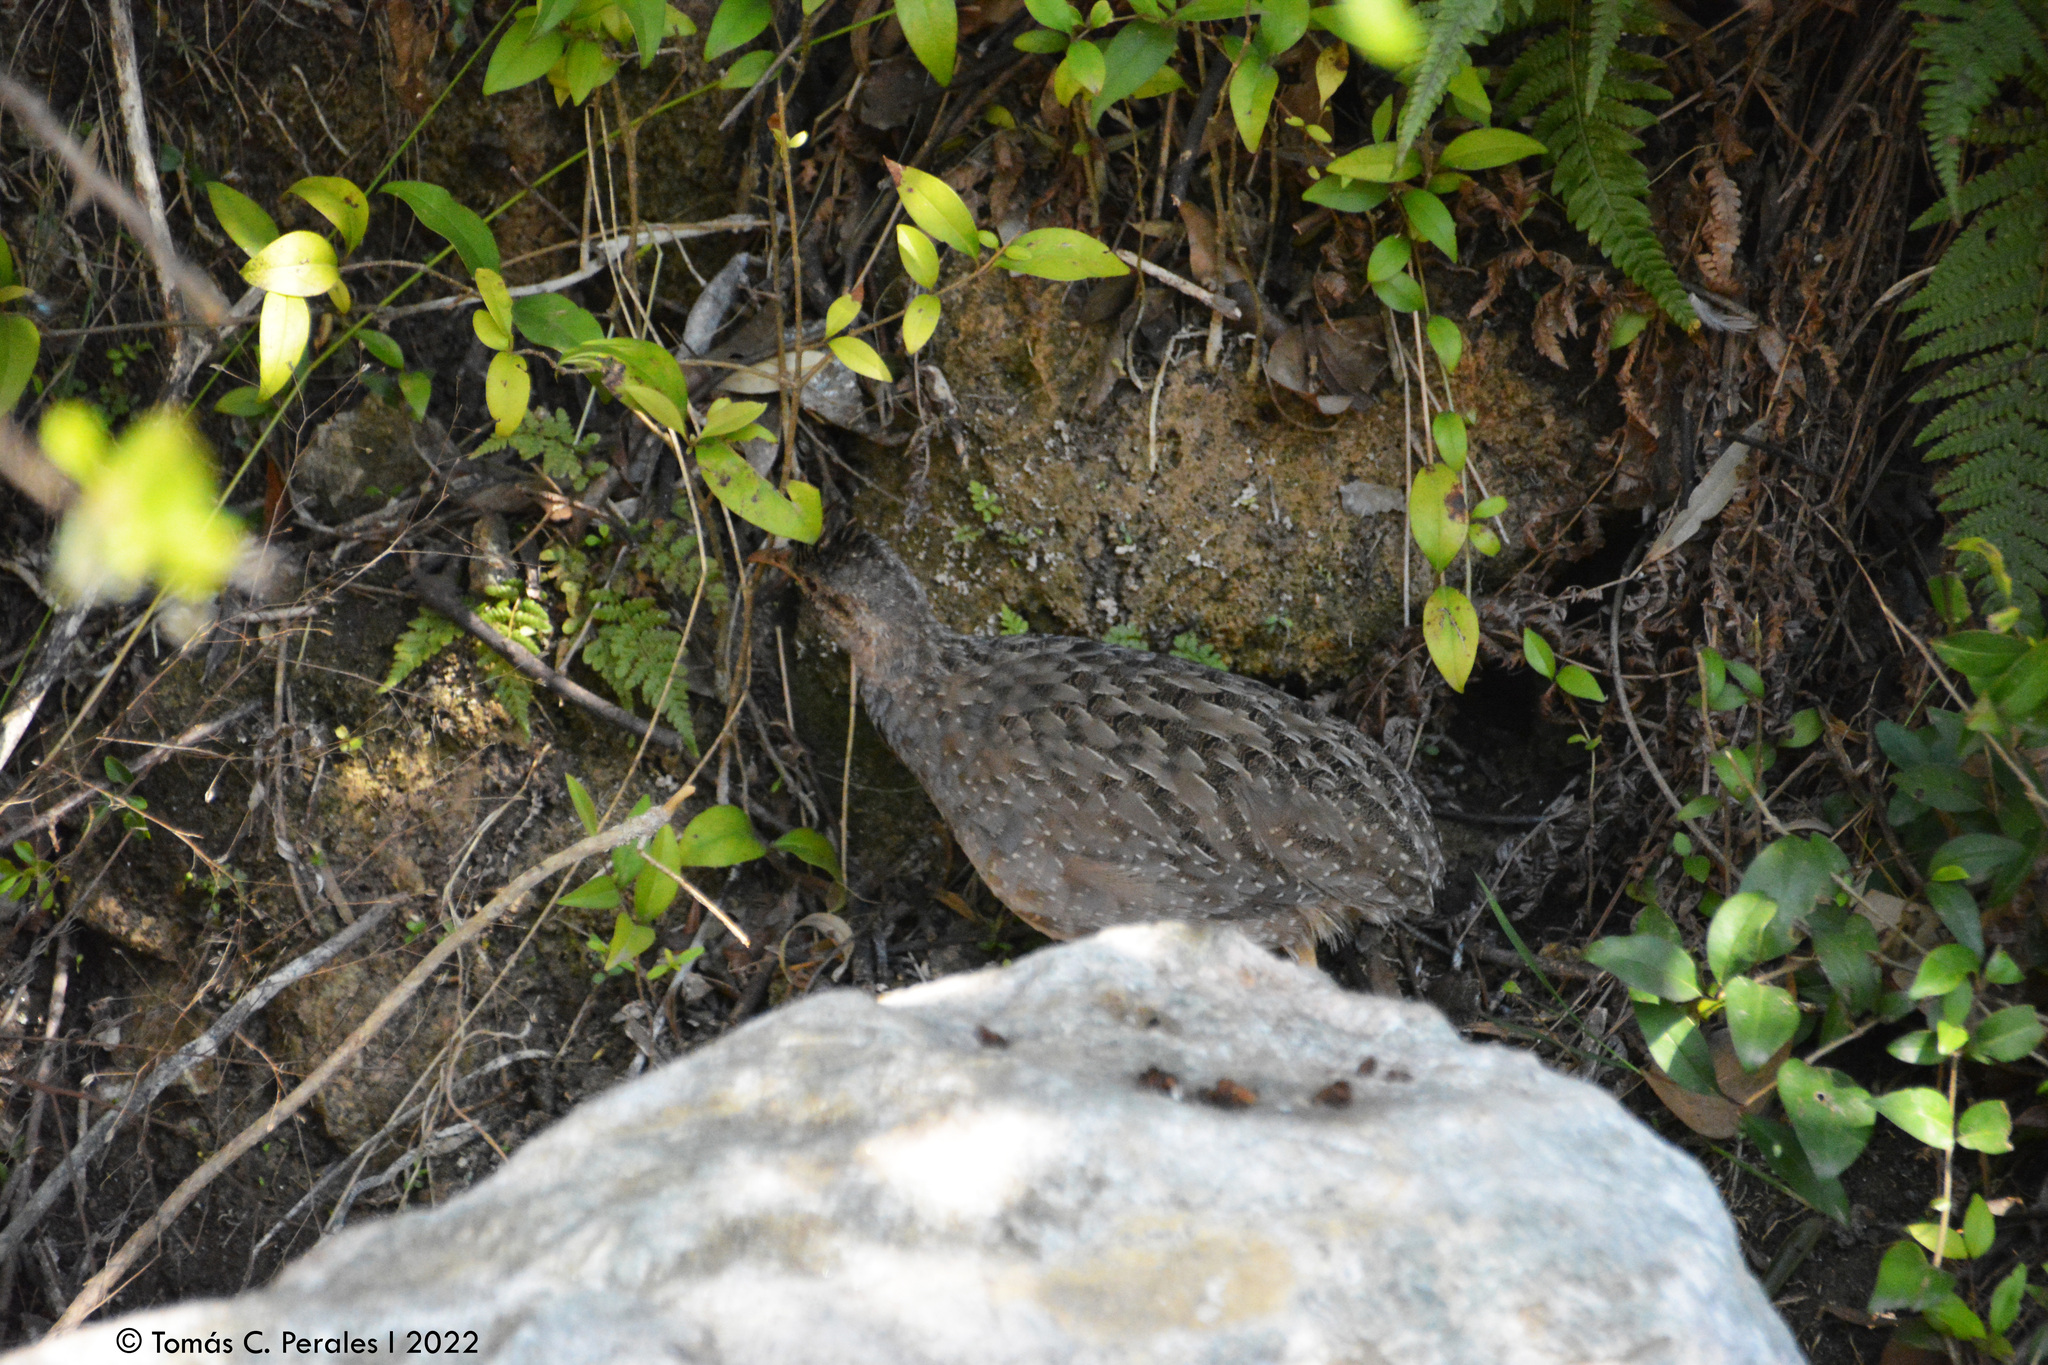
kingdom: Animalia
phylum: Chordata
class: Aves
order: Tinamiformes
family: Tinamidae
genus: Nothoprocta
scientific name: Nothoprocta pentlandii
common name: Andean tinamou
